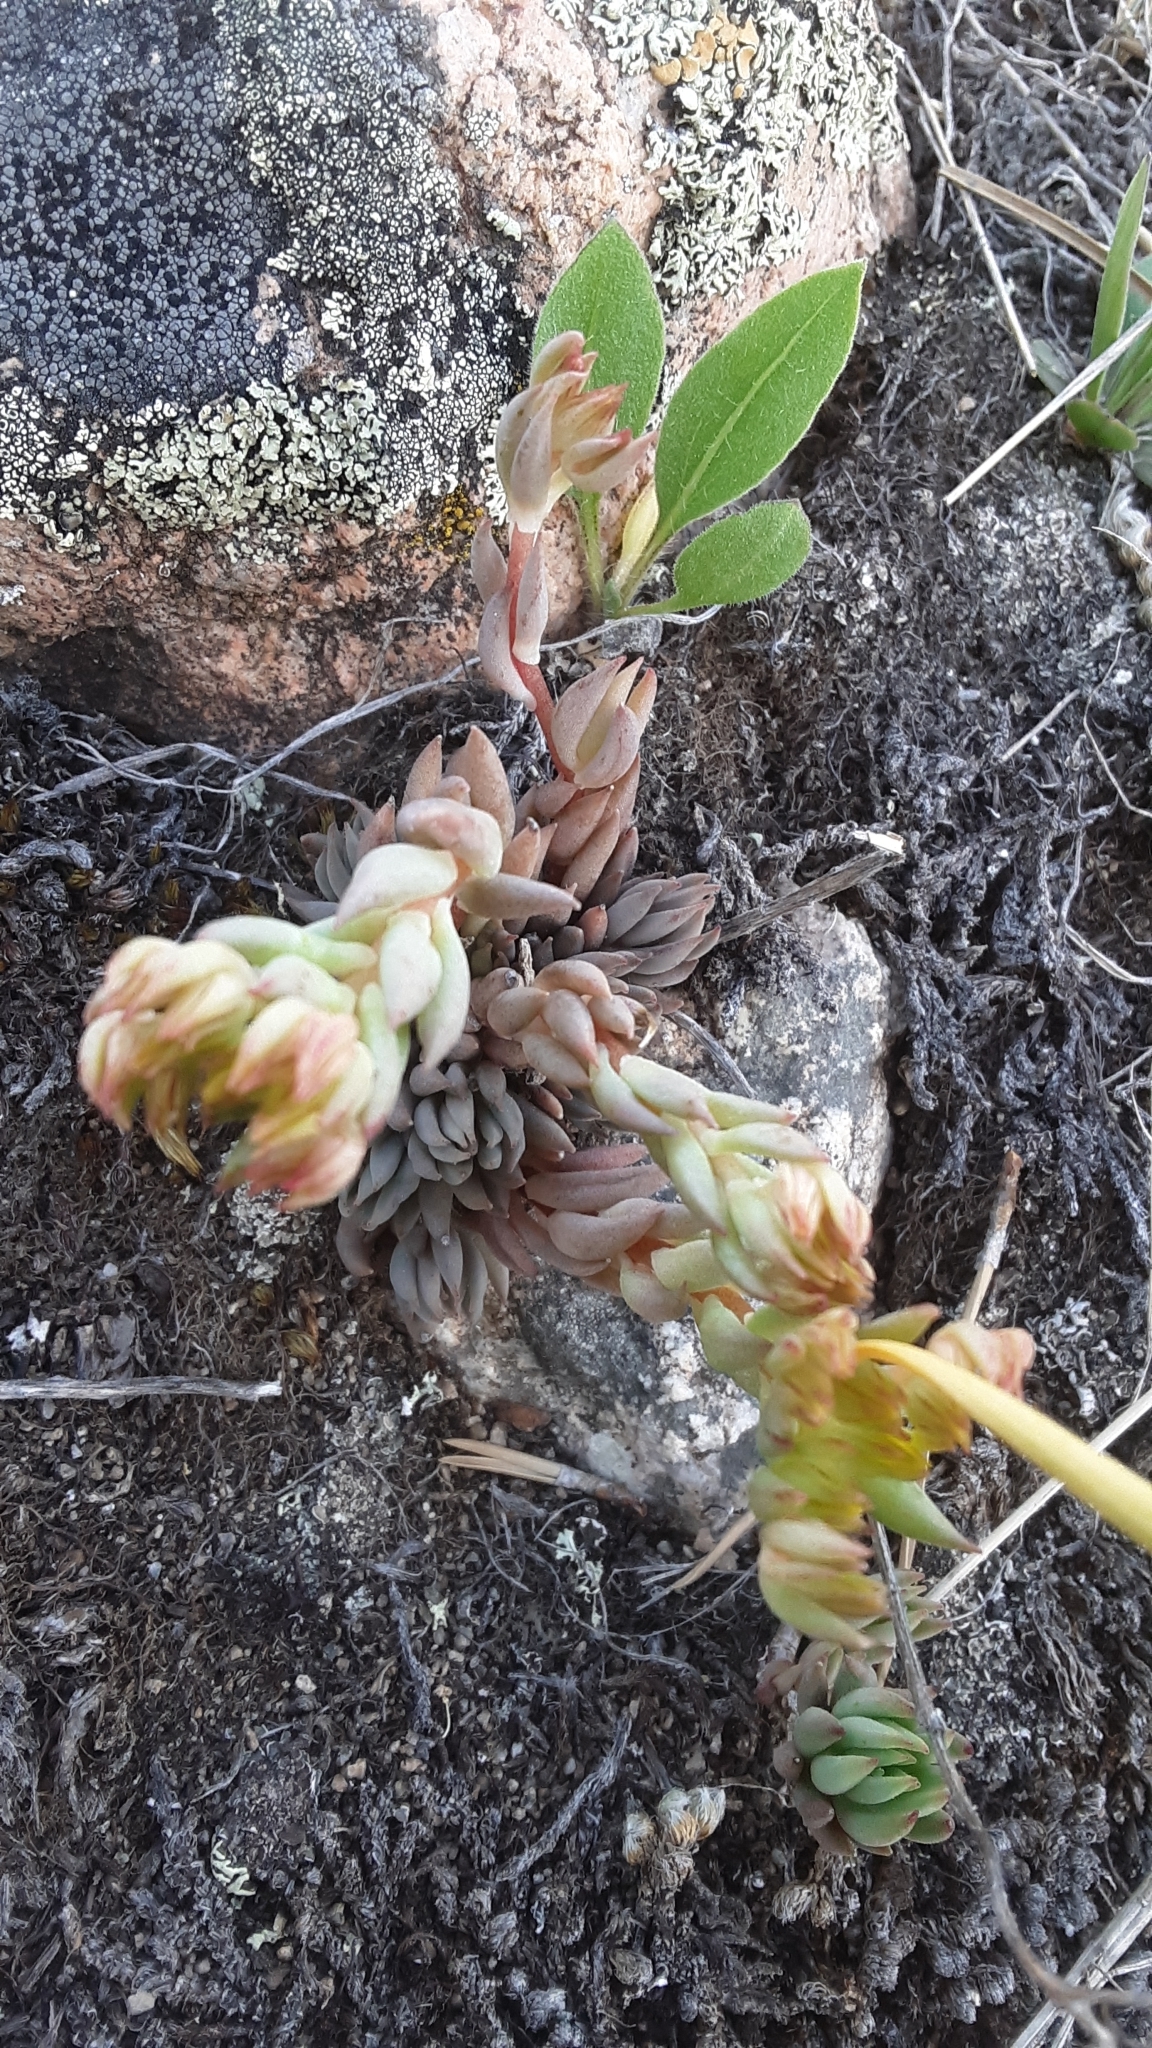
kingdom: Plantae
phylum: Tracheophyta
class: Magnoliopsida
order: Saxifragales
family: Crassulaceae
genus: Sedum
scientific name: Sedum lanceolatum
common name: Common stonecrop
